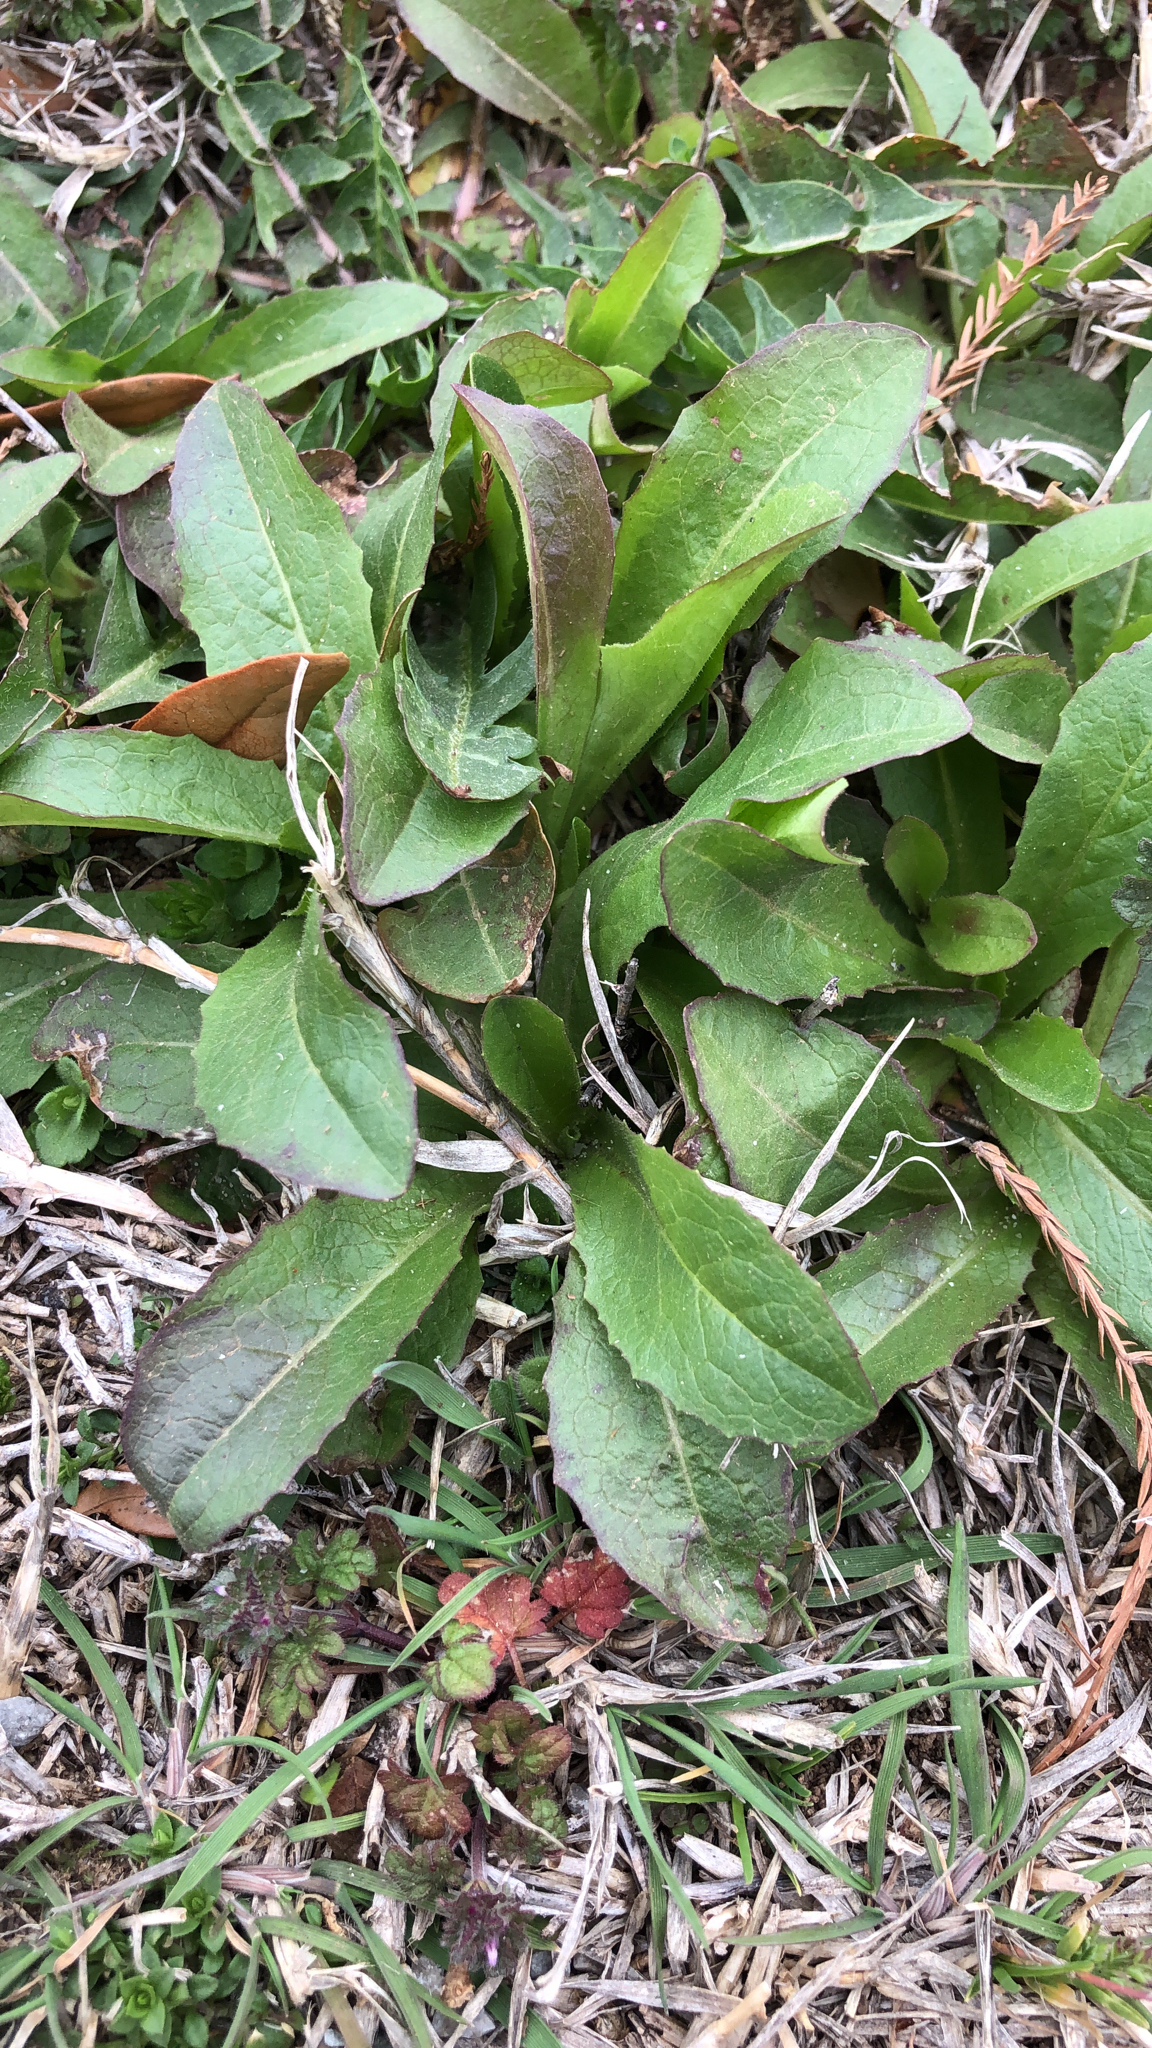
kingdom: Plantae
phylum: Tracheophyta
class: Magnoliopsida
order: Asterales
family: Asteraceae
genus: Lactuca
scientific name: Lactuca serriola
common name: Prickly lettuce
